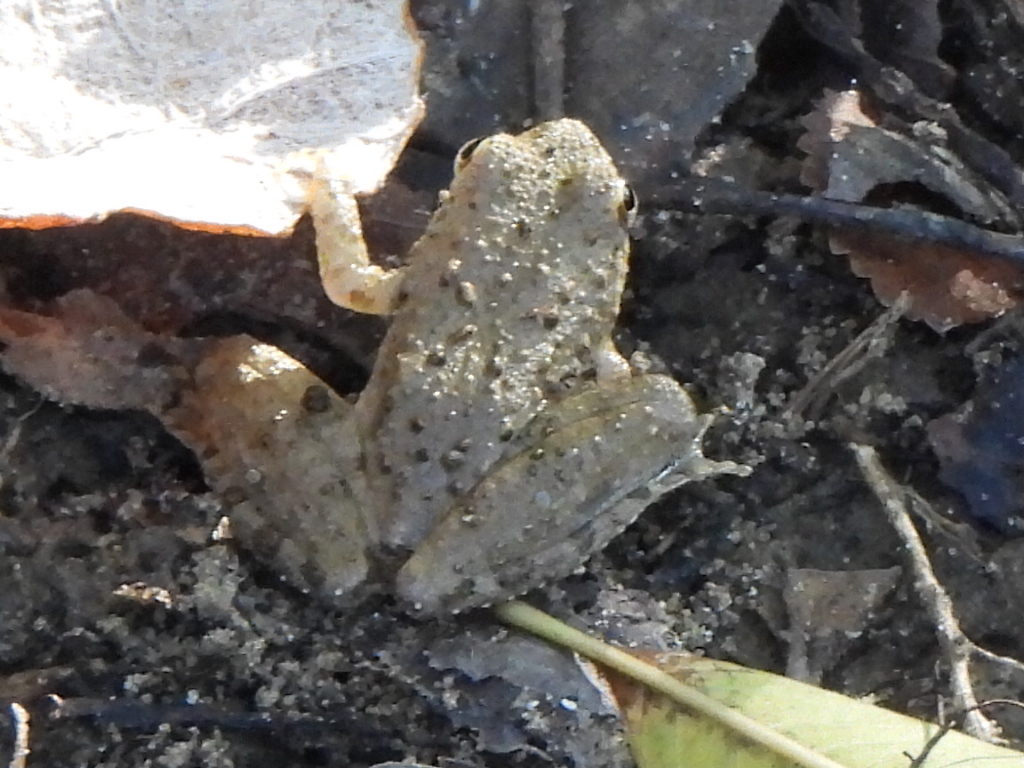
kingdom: Animalia
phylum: Chordata
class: Amphibia
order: Anura
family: Hylidae
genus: Acris
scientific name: Acris blanchardi
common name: Blanchard's cricket frog
